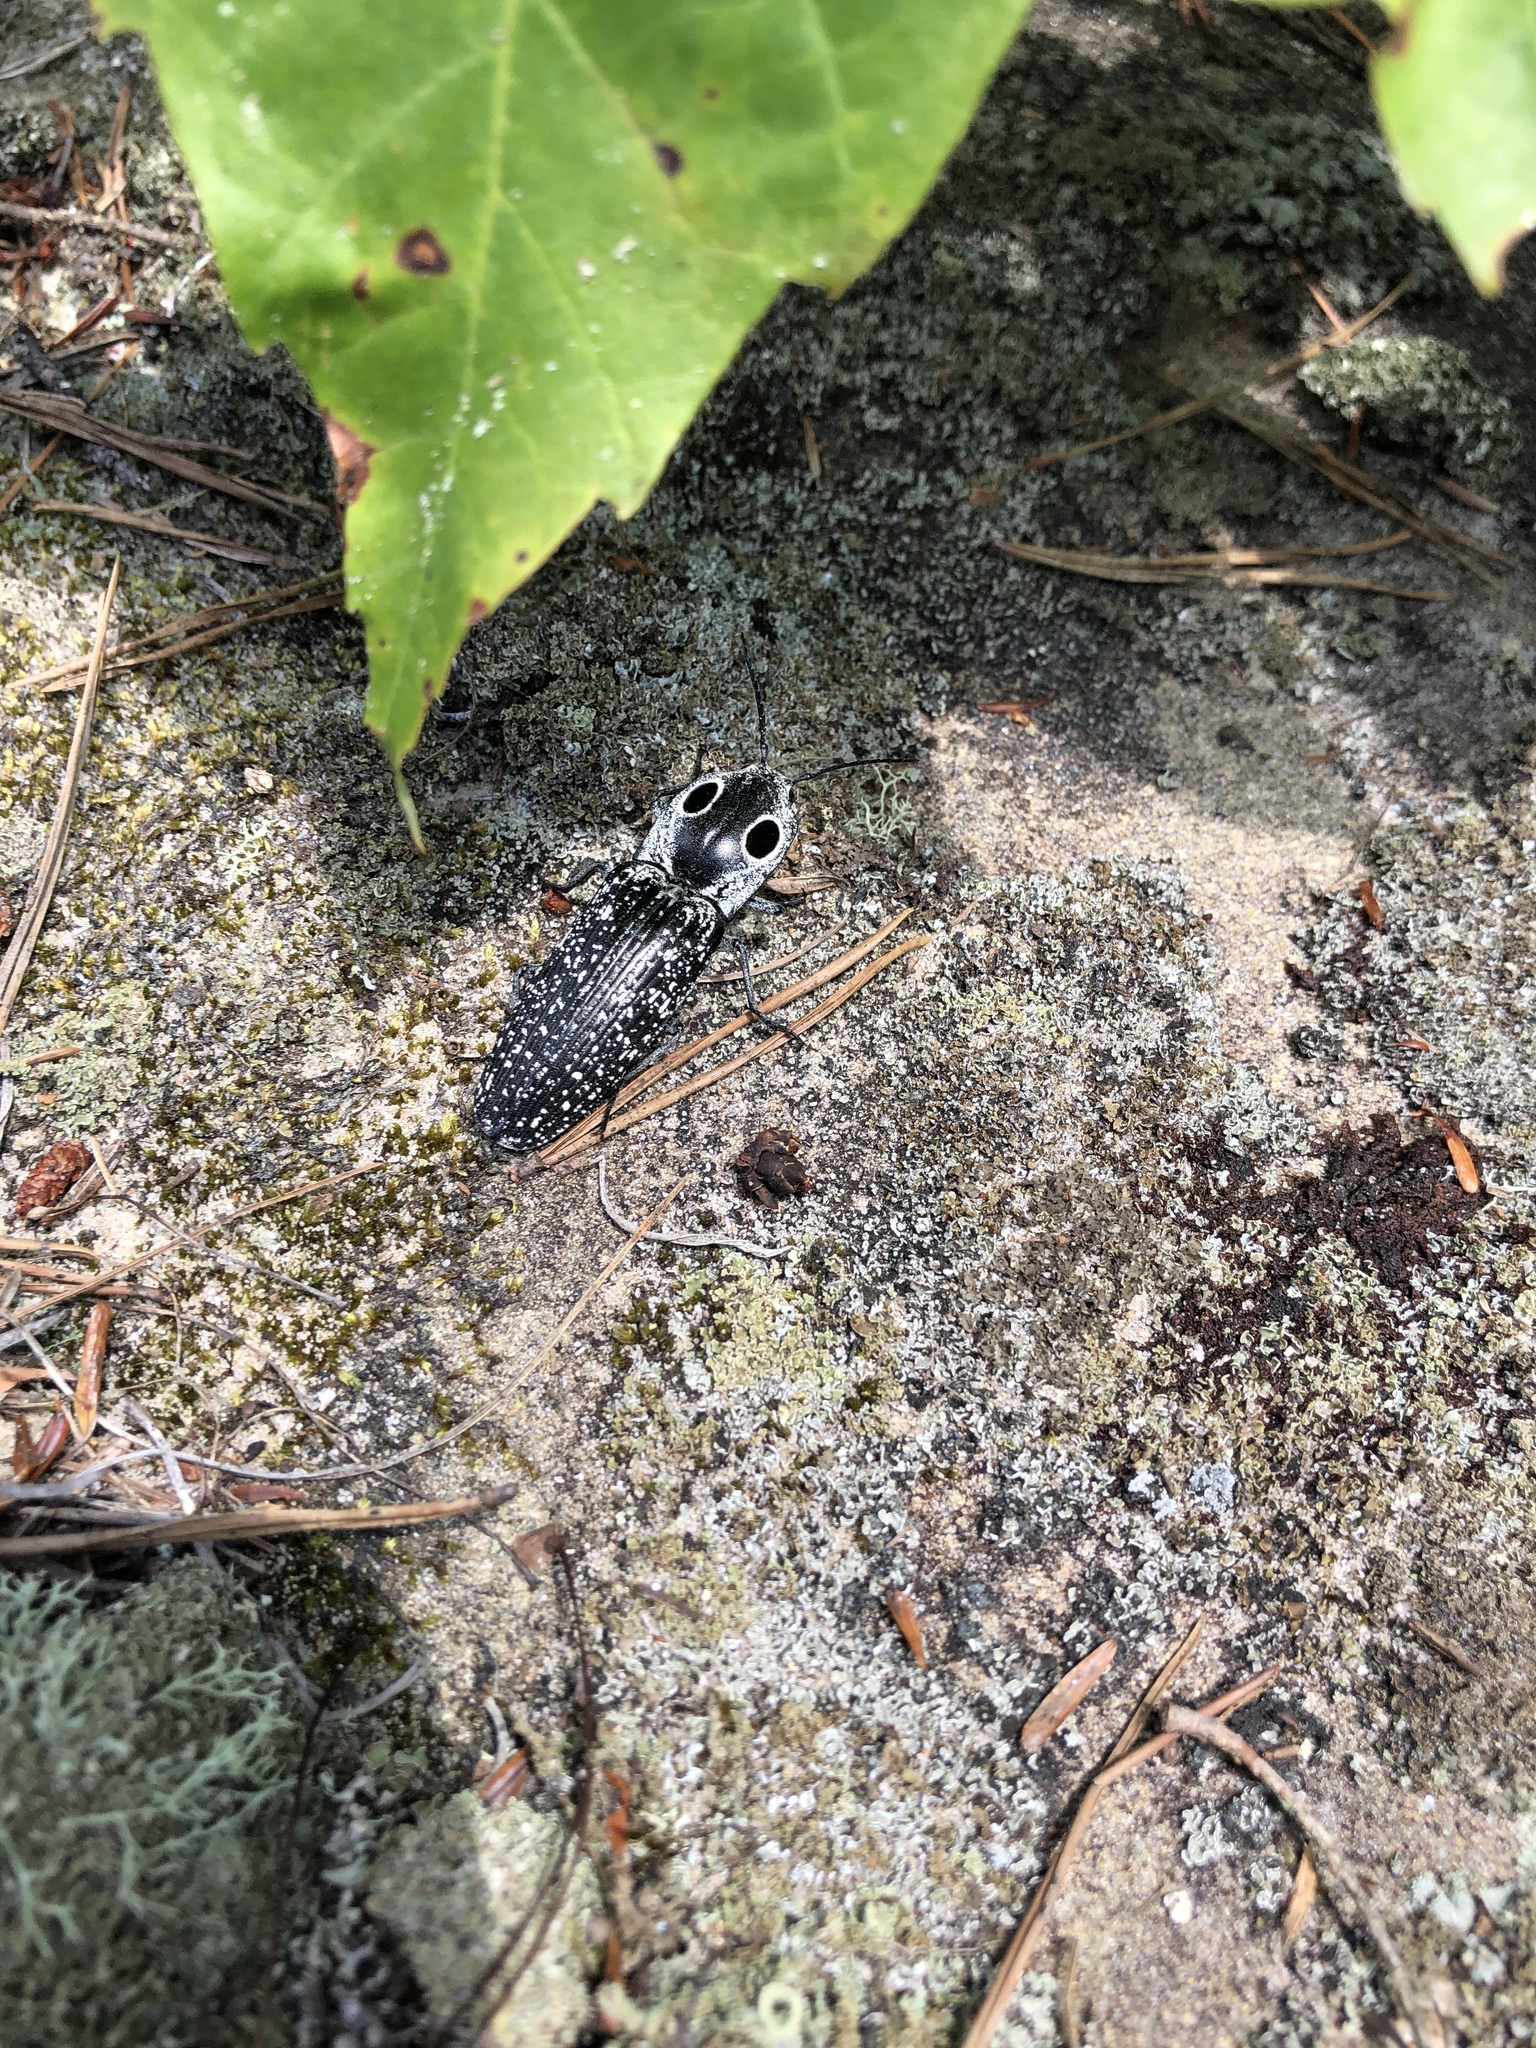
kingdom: Animalia
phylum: Arthropoda
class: Insecta
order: Coleoptera
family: Elateridae
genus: Alaus
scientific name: Alaus oculatus
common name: Eastern eyed click beetle
